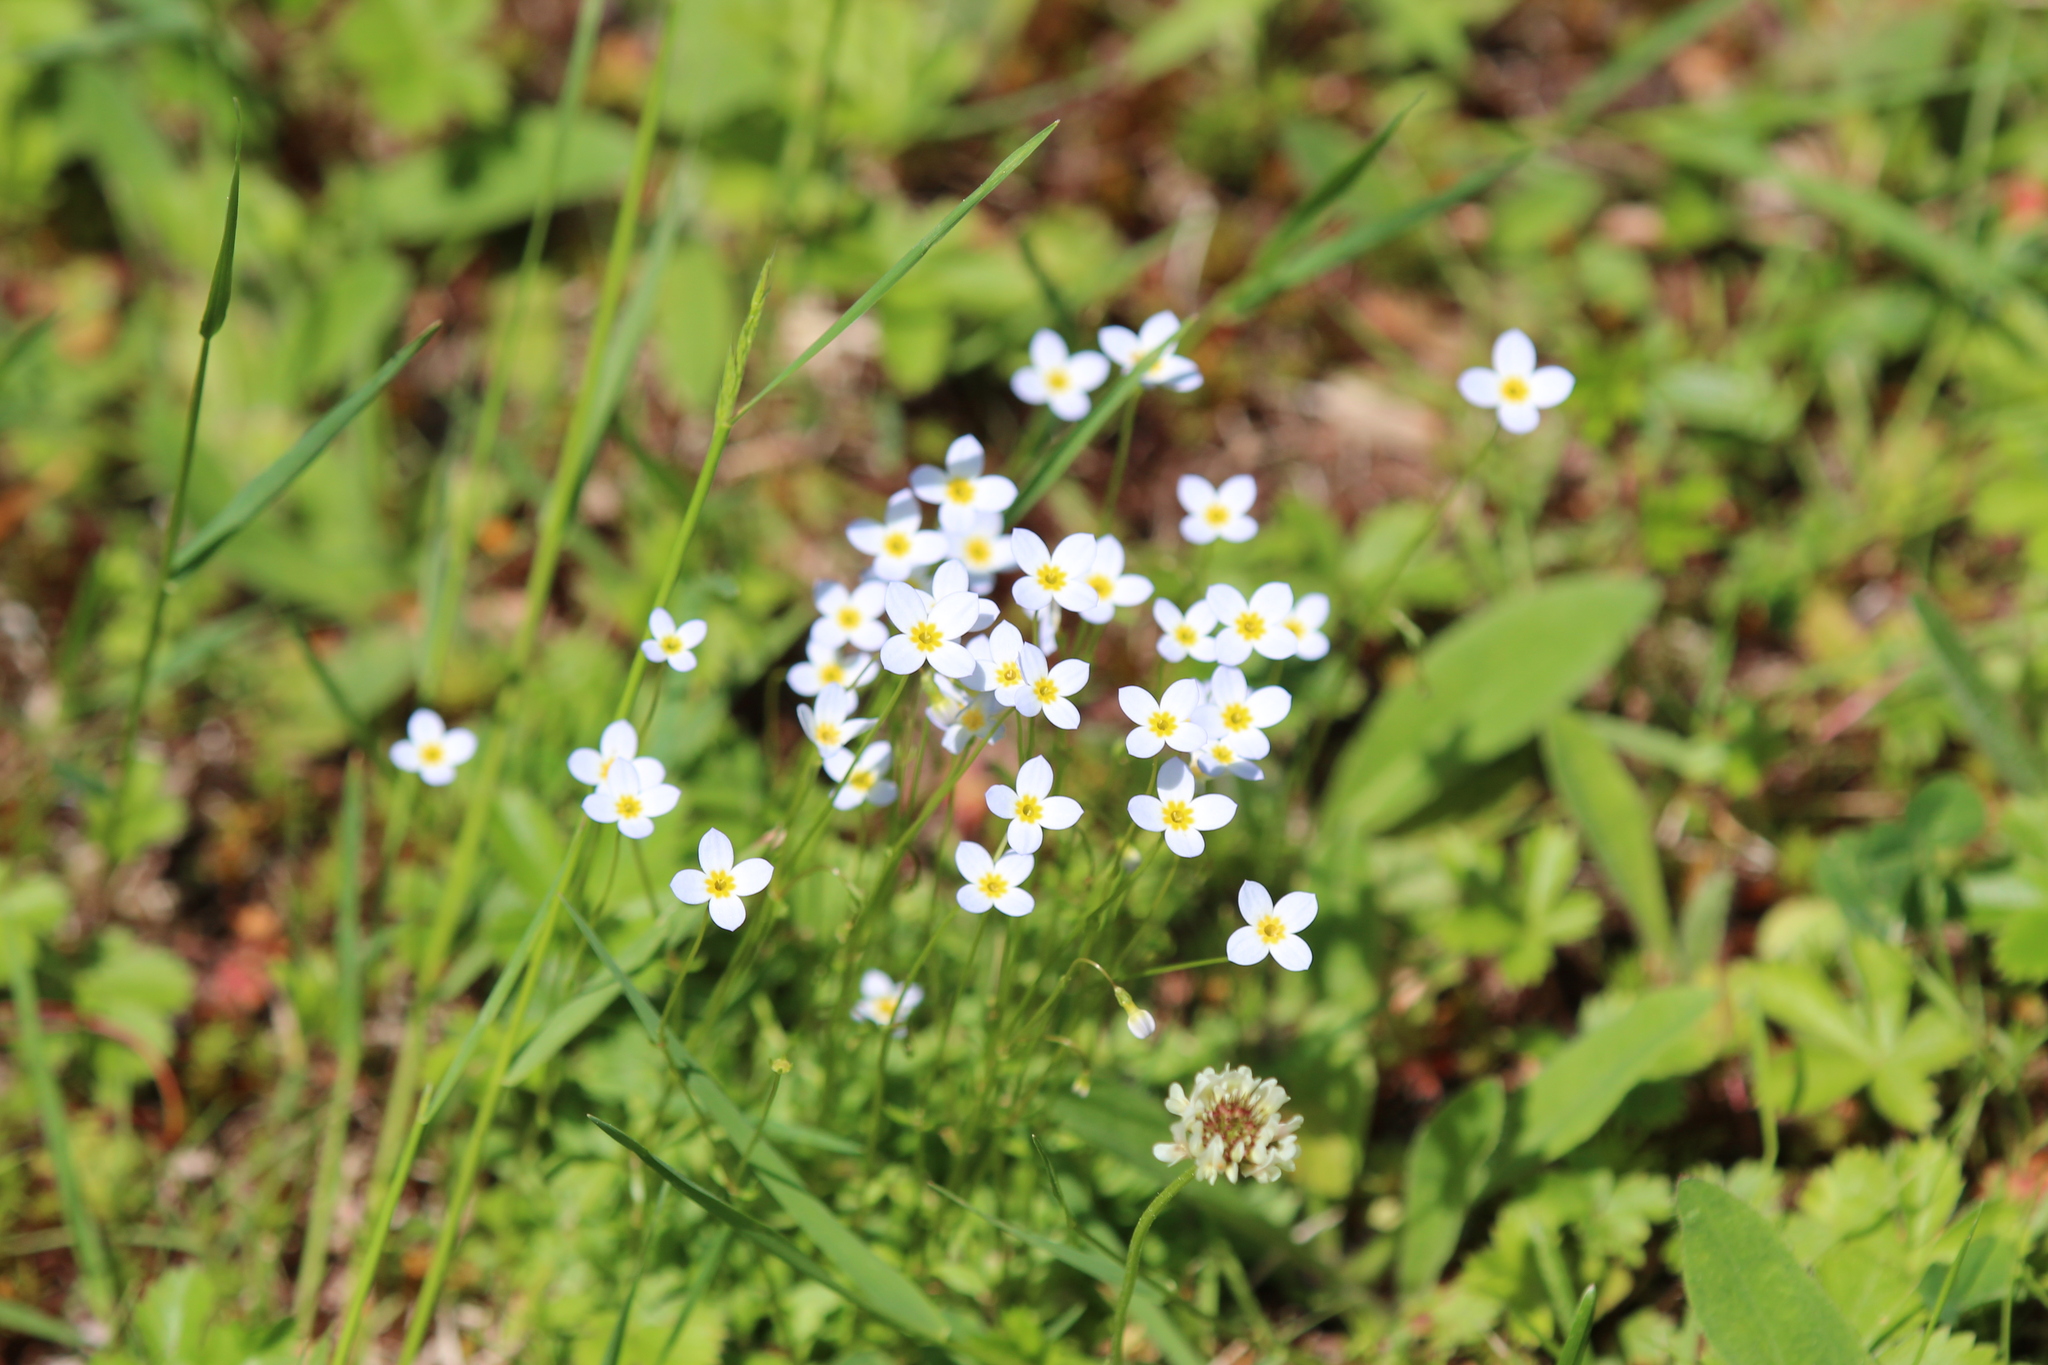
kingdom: Plantae
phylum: Tracheophyta
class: Magnoliopsida
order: Gentianales
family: Rubiaceae
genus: Houstonia
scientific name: Houstonia caerulea
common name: Bluets
